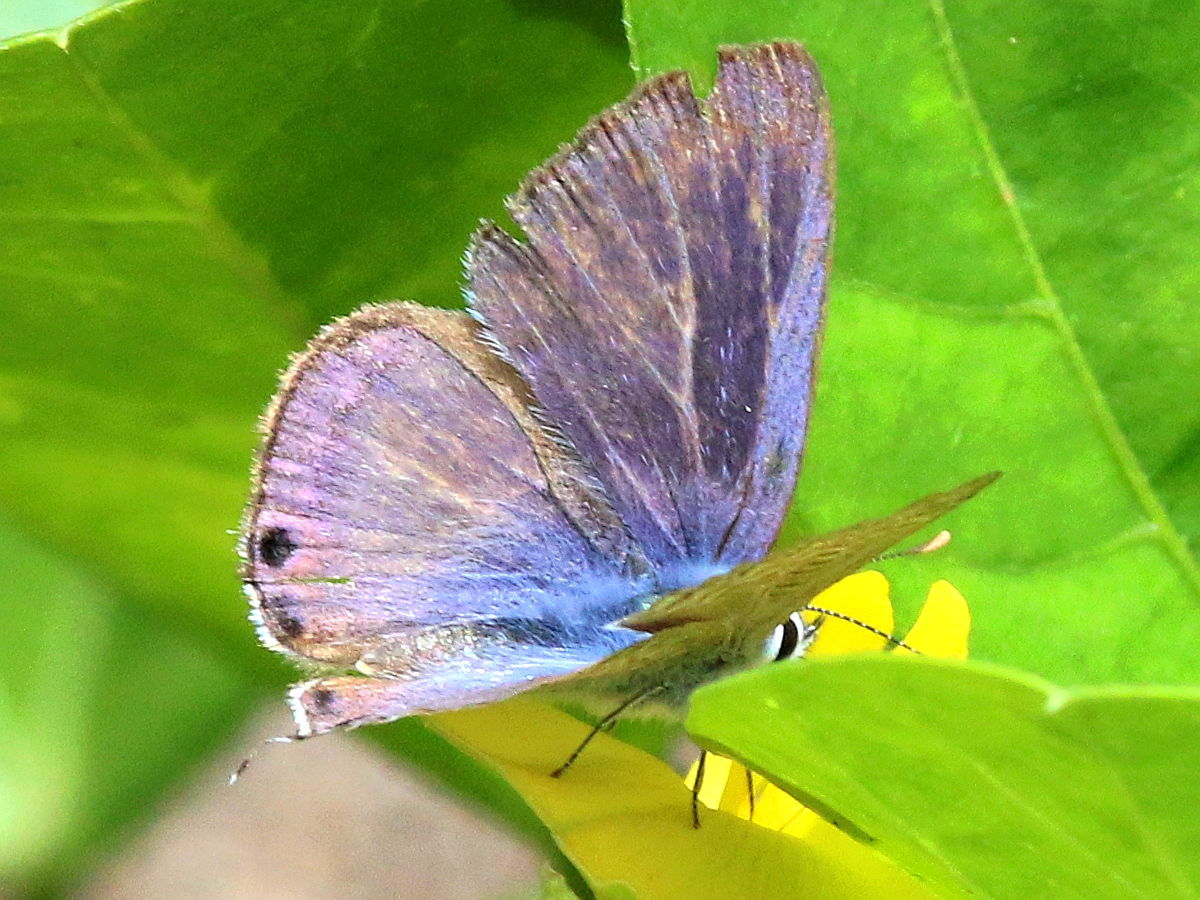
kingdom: Animalia
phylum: Arthropoda
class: Insecta
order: Lepidoptera
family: Lycaenidae
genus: Lampides
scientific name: Lampides boeticus
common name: Long-tailed blue
